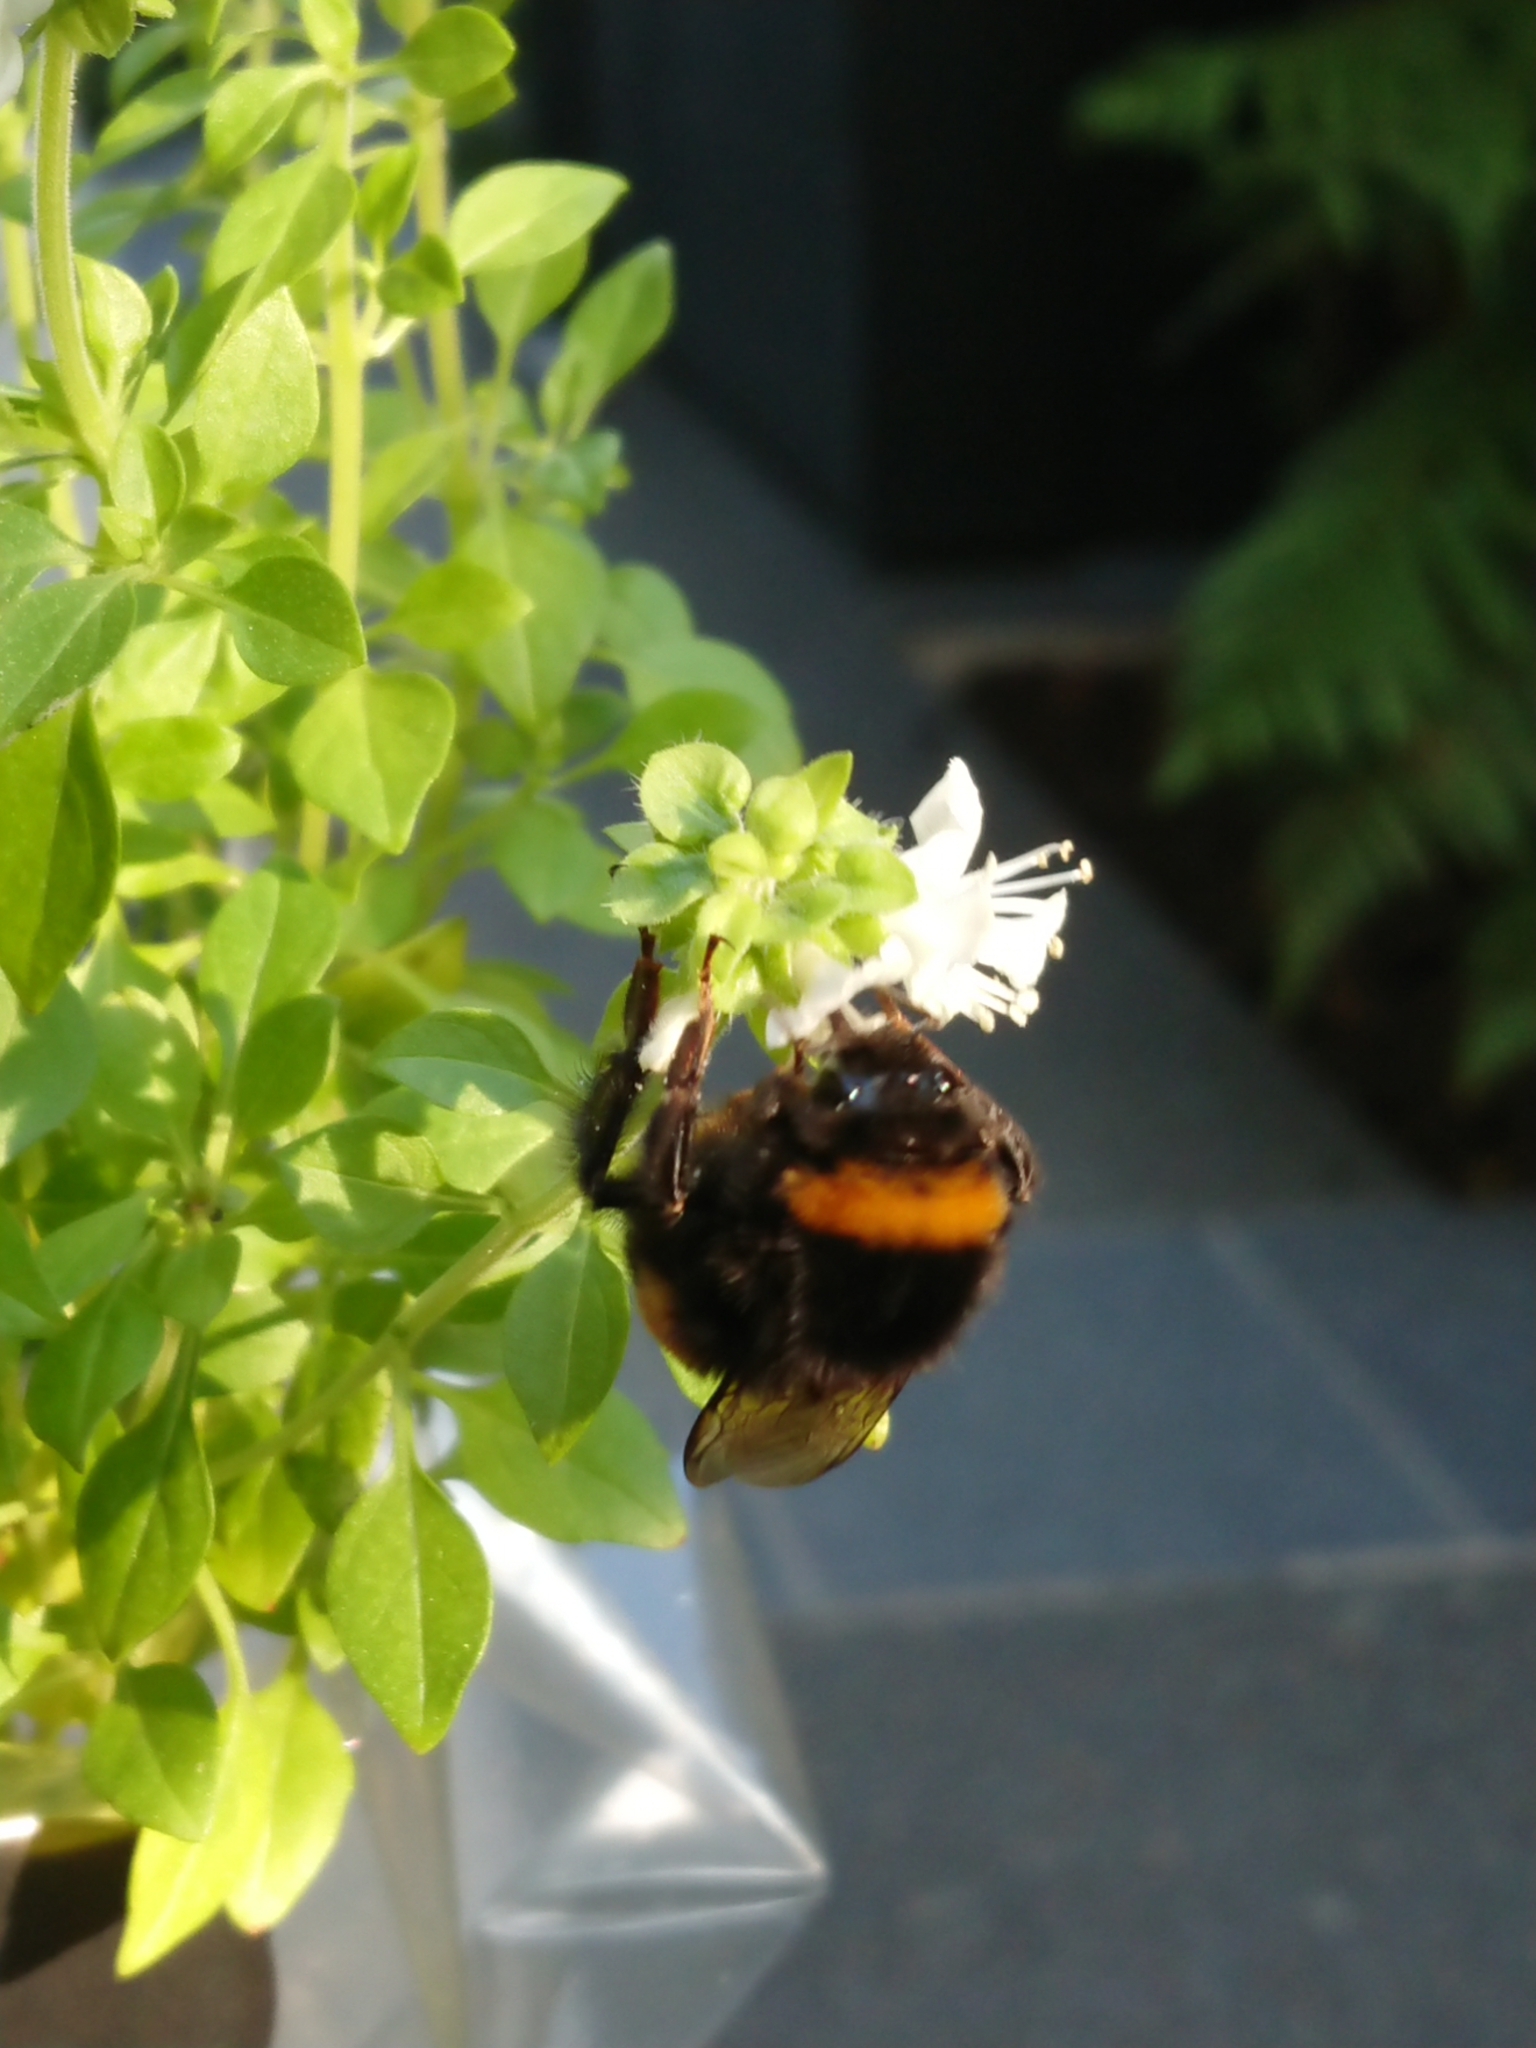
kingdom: Animalia
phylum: Arthropoda
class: Insecta
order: Hymenoptera
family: Apidae
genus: Bombus
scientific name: Bombus terrestris
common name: Buff-tailed bumblebee
